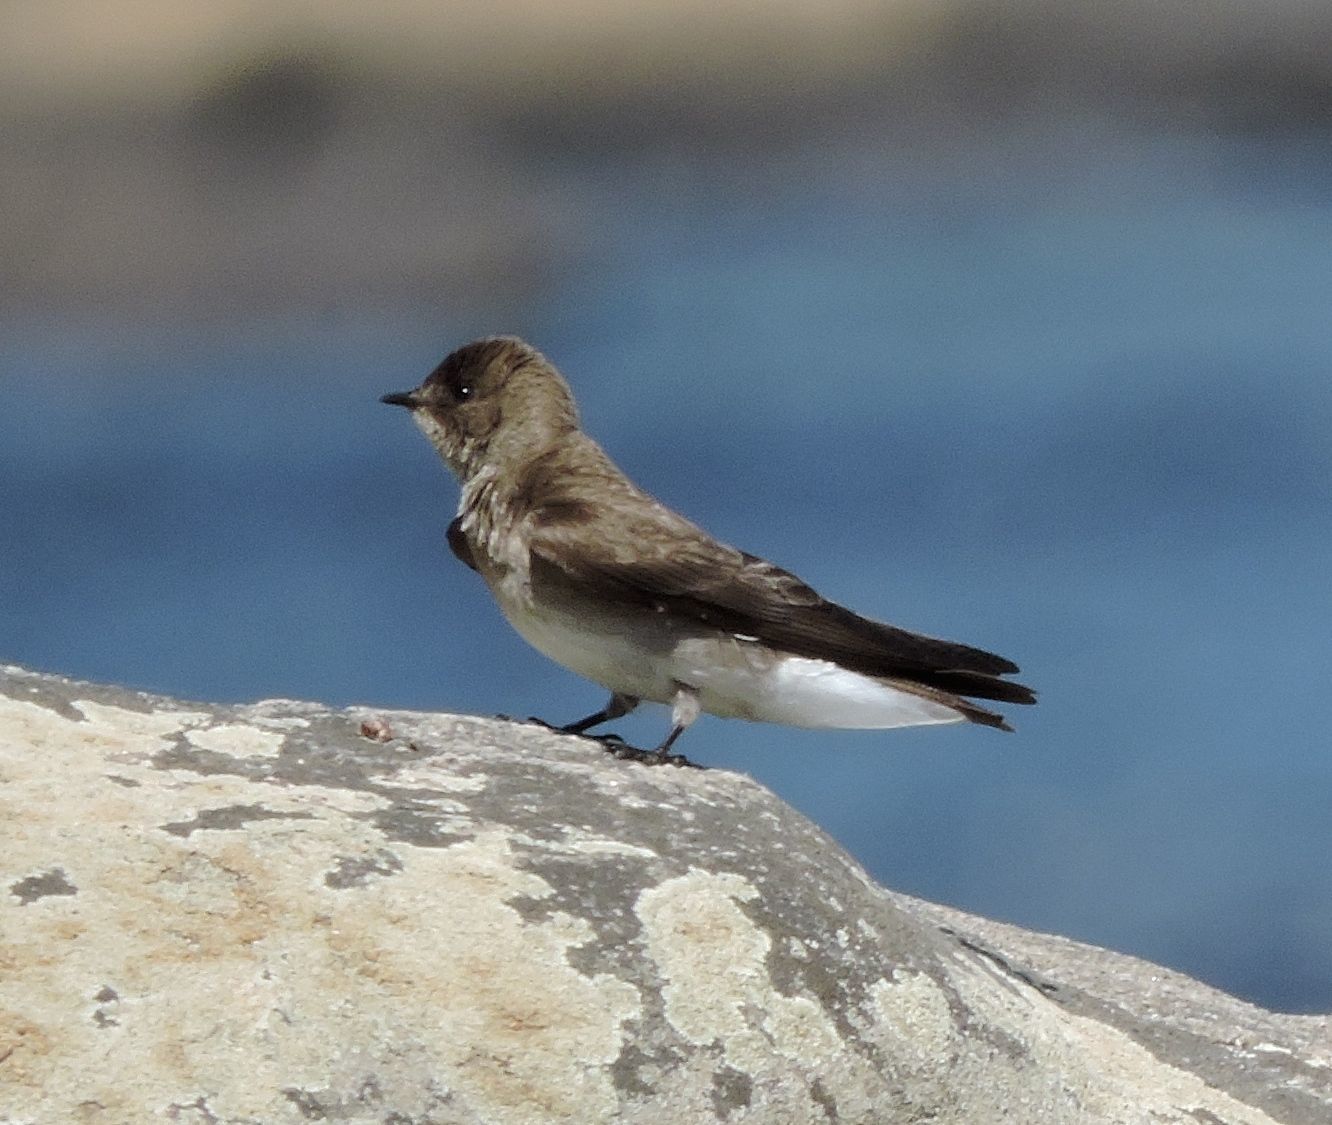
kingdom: Animalia
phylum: Chordata
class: Aves
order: Passeriformes
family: Hirundinidae
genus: Stelgidopteryx
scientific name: Stelgidopteryx serripennis
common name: Northern rough-winged swallow
